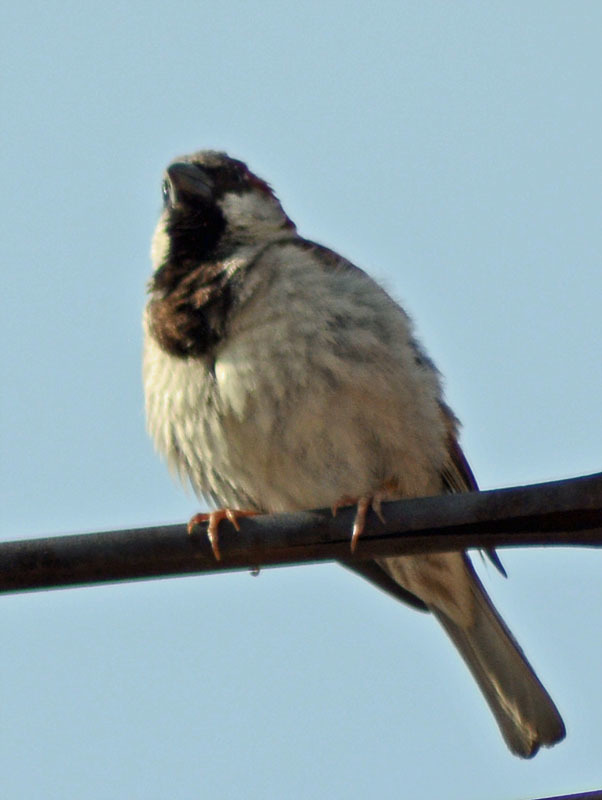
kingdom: Animalia
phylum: Chordata
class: Aves
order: Passeriformes
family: Passeridae
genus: Passer
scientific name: Passer domesticus
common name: House sparrow
